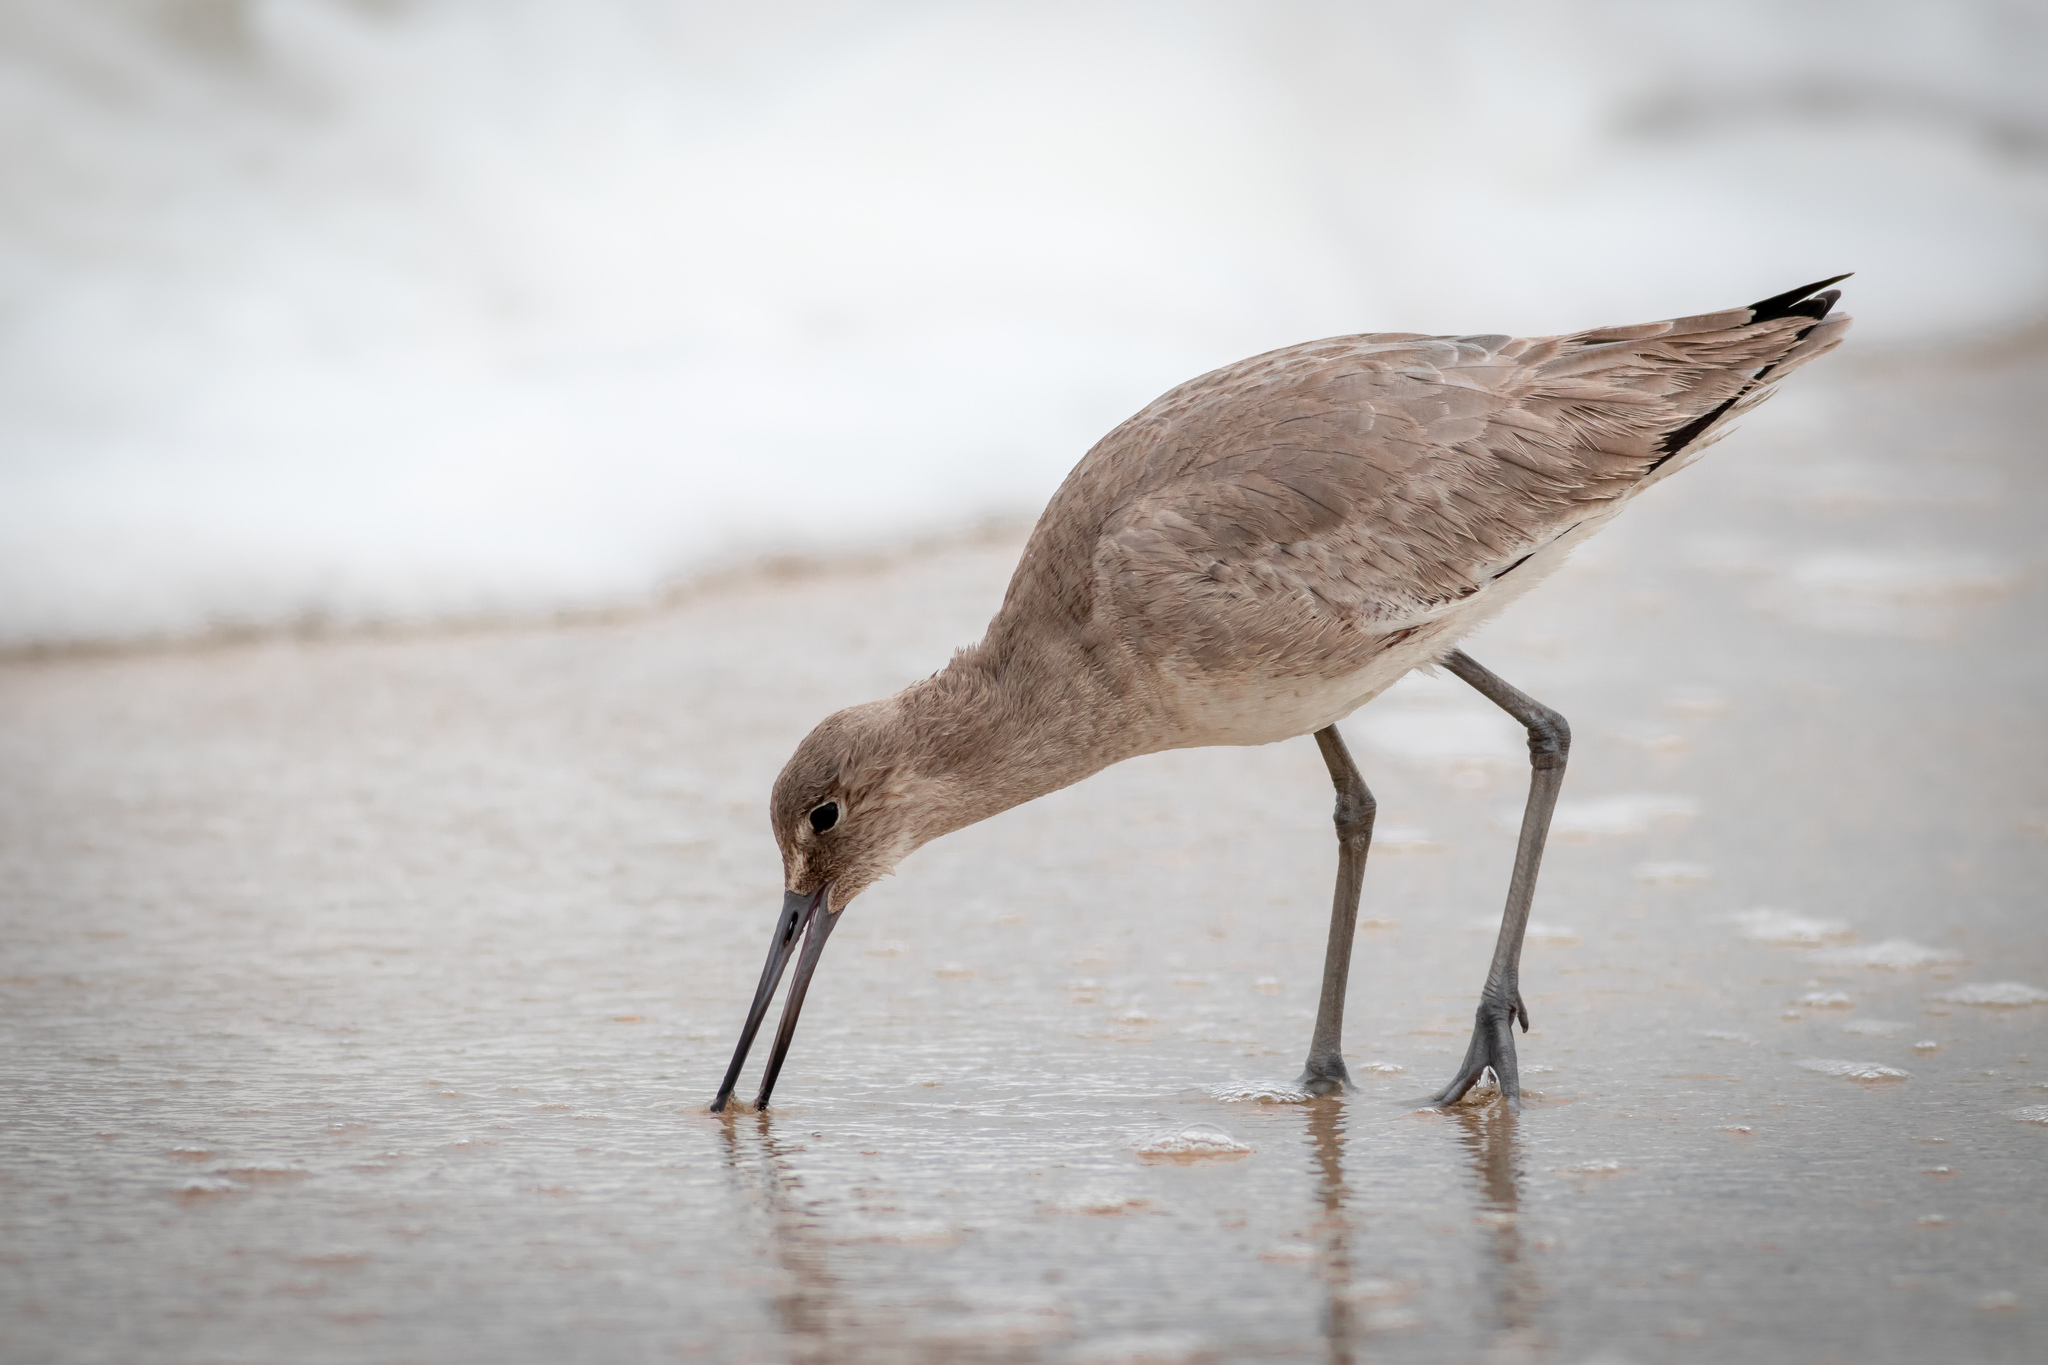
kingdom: Animalia
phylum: Chordata
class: Aves
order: Charadriiformes
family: Scolopacidae
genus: Tringa
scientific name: Tringa semipalmata
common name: Willet
